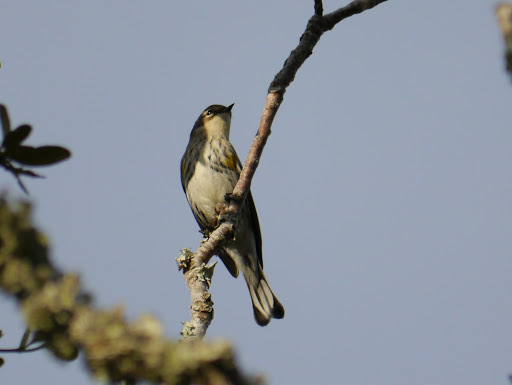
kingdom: Animalia
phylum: Chordata
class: Aves
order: Passeriformes
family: Parulidae
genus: Setophaga
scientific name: Setophaga coronata
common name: Myrtle warbler
